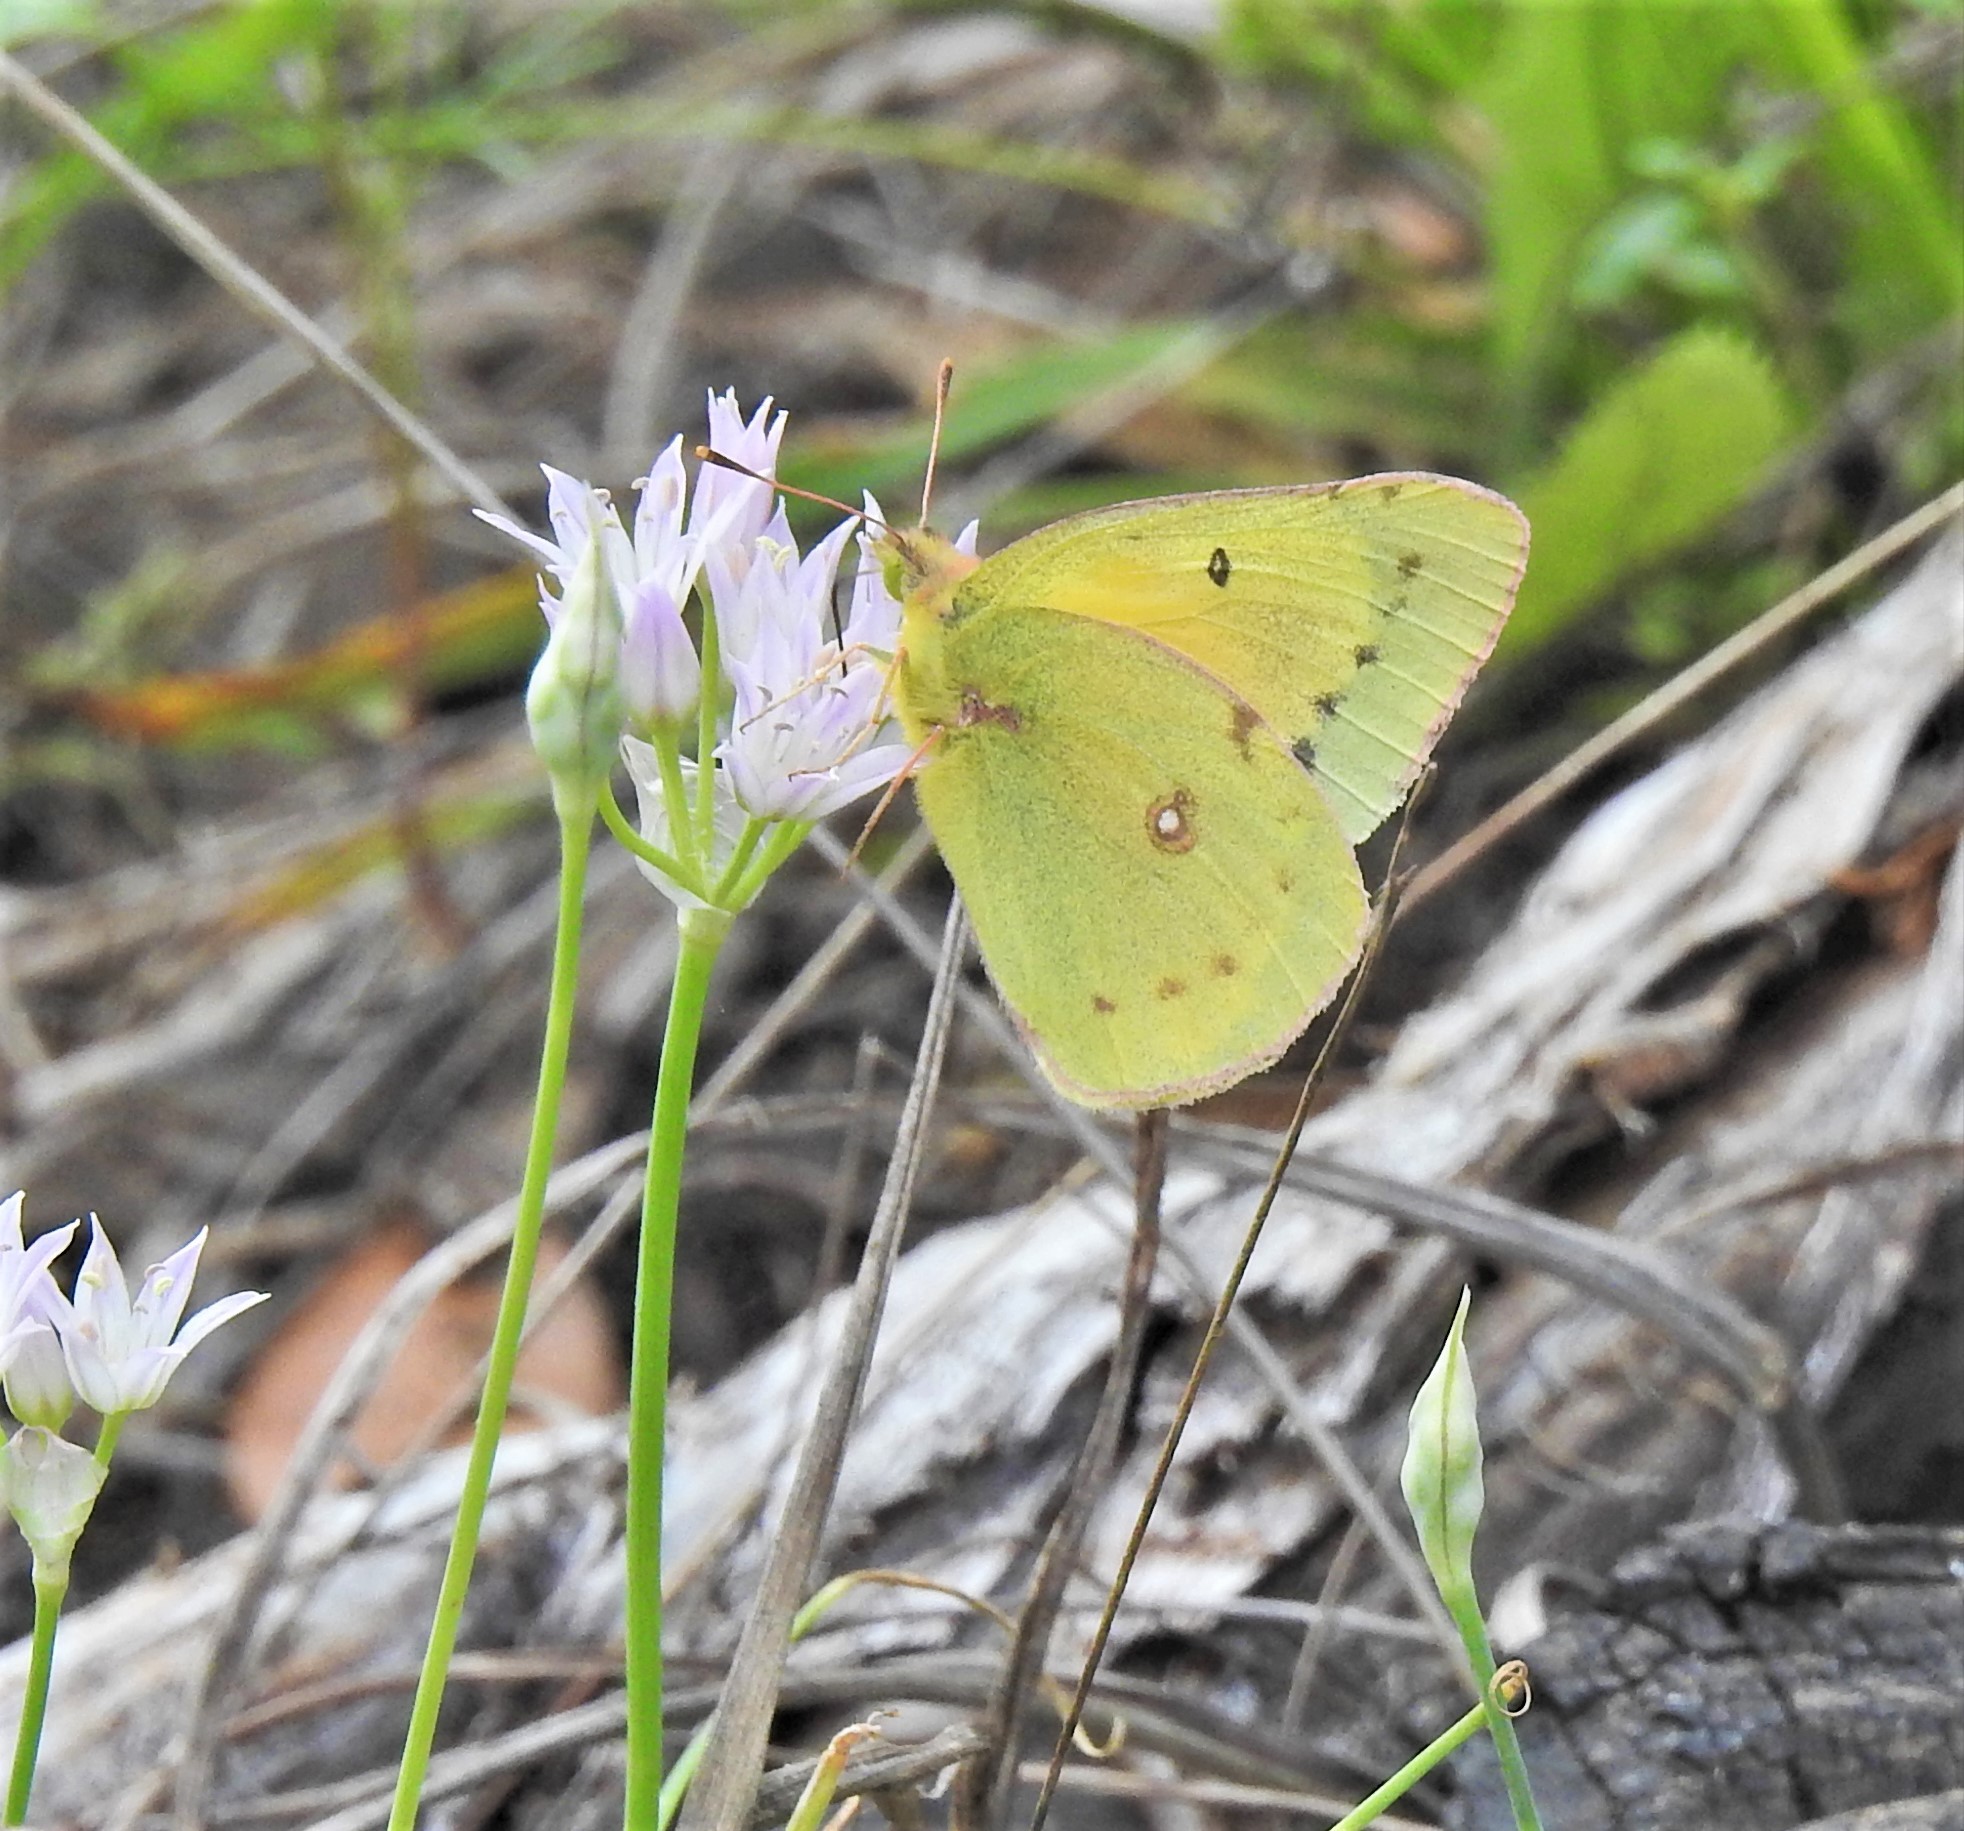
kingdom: Animalia
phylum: Arthropoda
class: Insecta
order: Lepidoptera
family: Pieridae
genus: Colias
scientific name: Colias eurytheme
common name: Alfalfa butterfly
